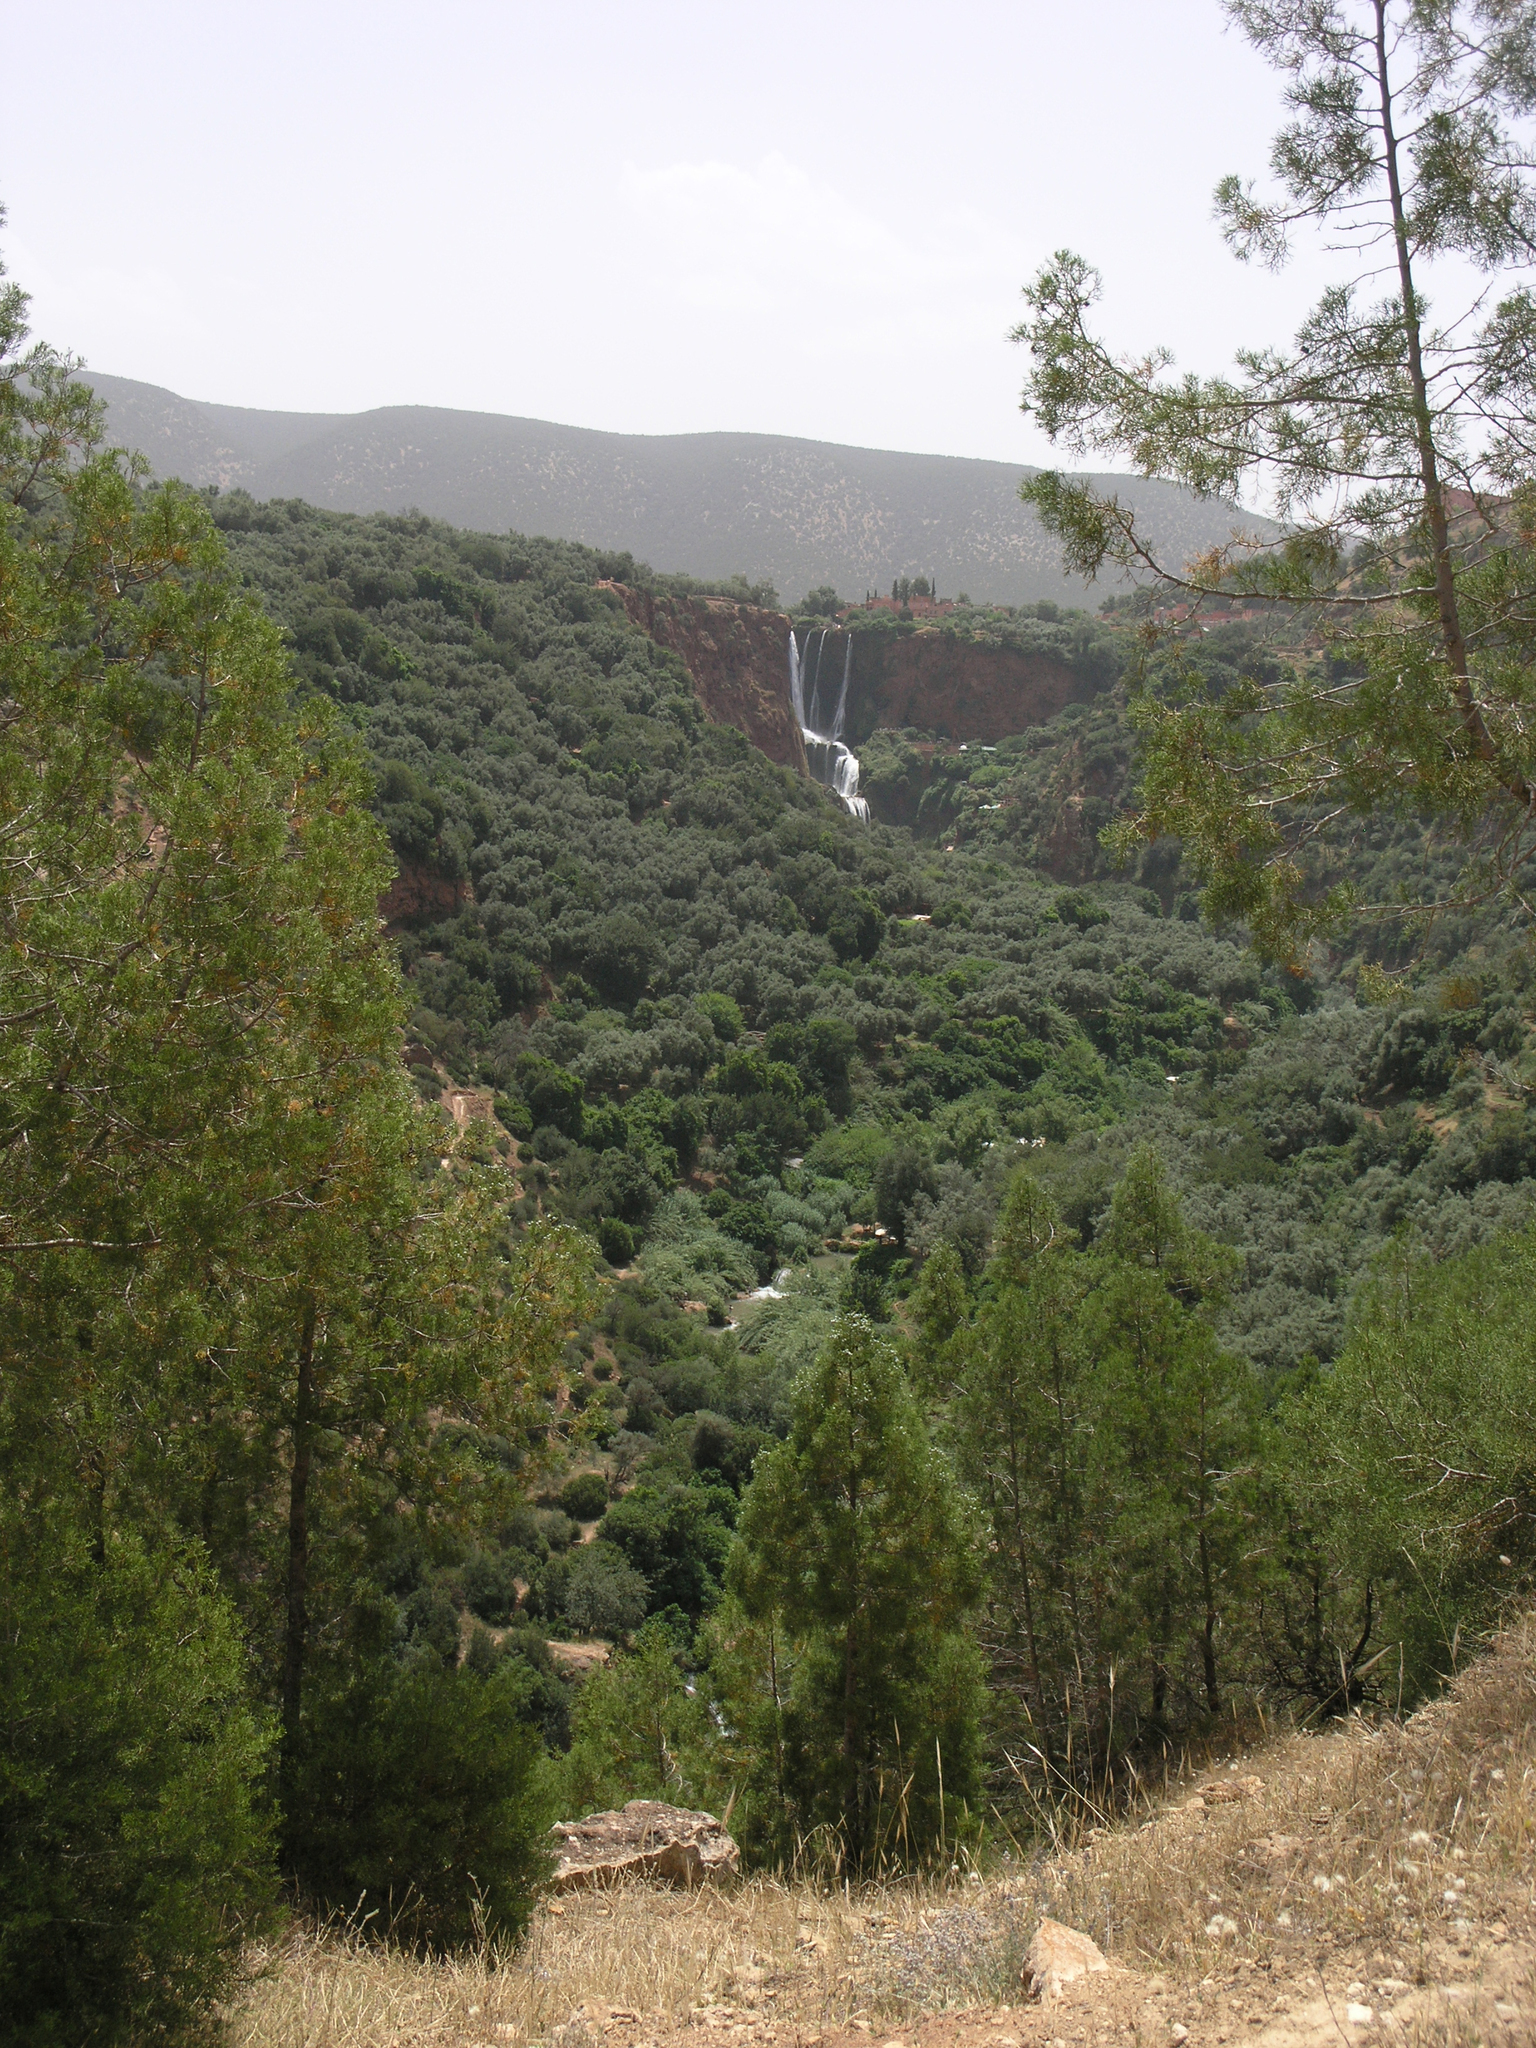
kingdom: Plantae
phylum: Tracheophyta
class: Pinopsida
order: Pinales
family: Cupressaceae
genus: Tetraclinis
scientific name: Tetraclinis articulata
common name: Sandarac
